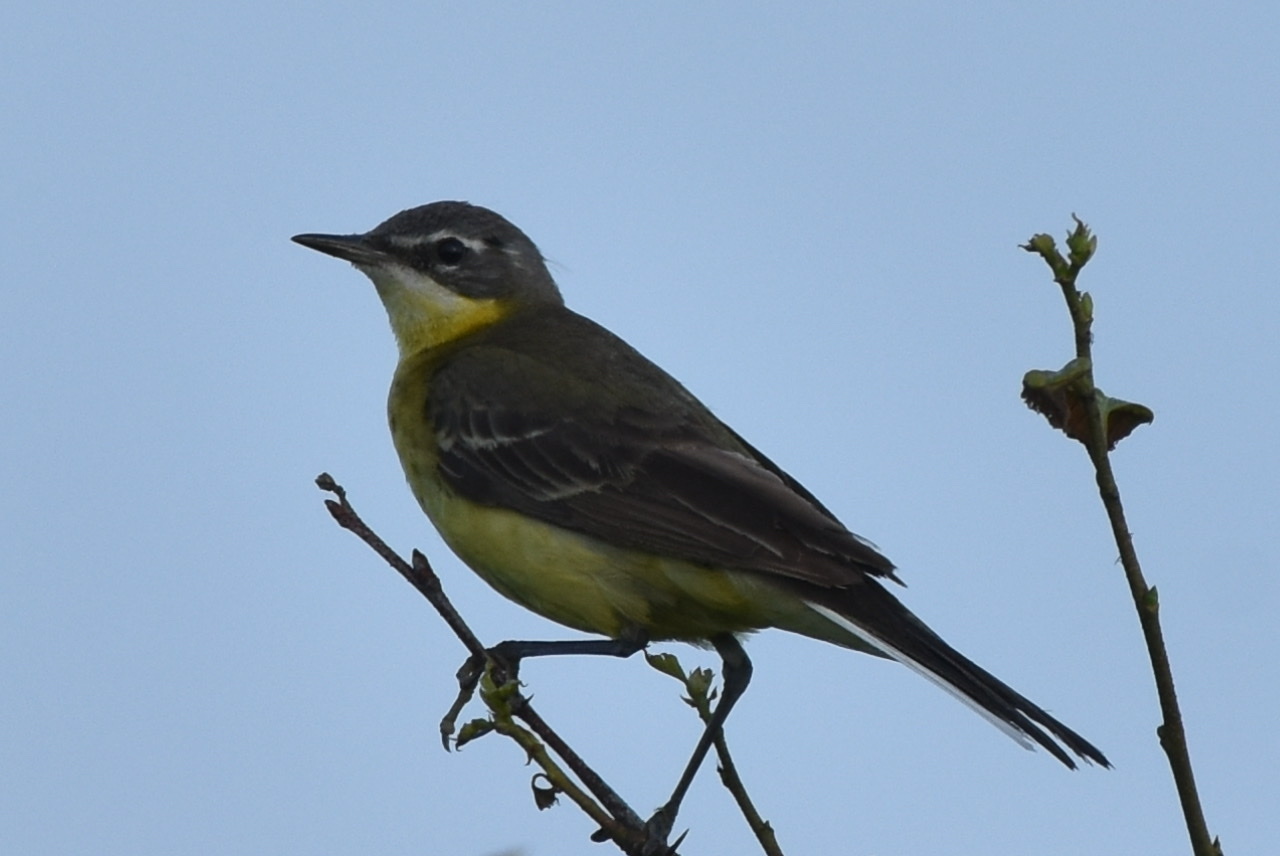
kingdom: Animalia
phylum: Chordata
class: Aves
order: Passeriformes
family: Motacillidae
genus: Motacilla
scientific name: Motacilla tschutschensis
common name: Eastern yellow wagtail
